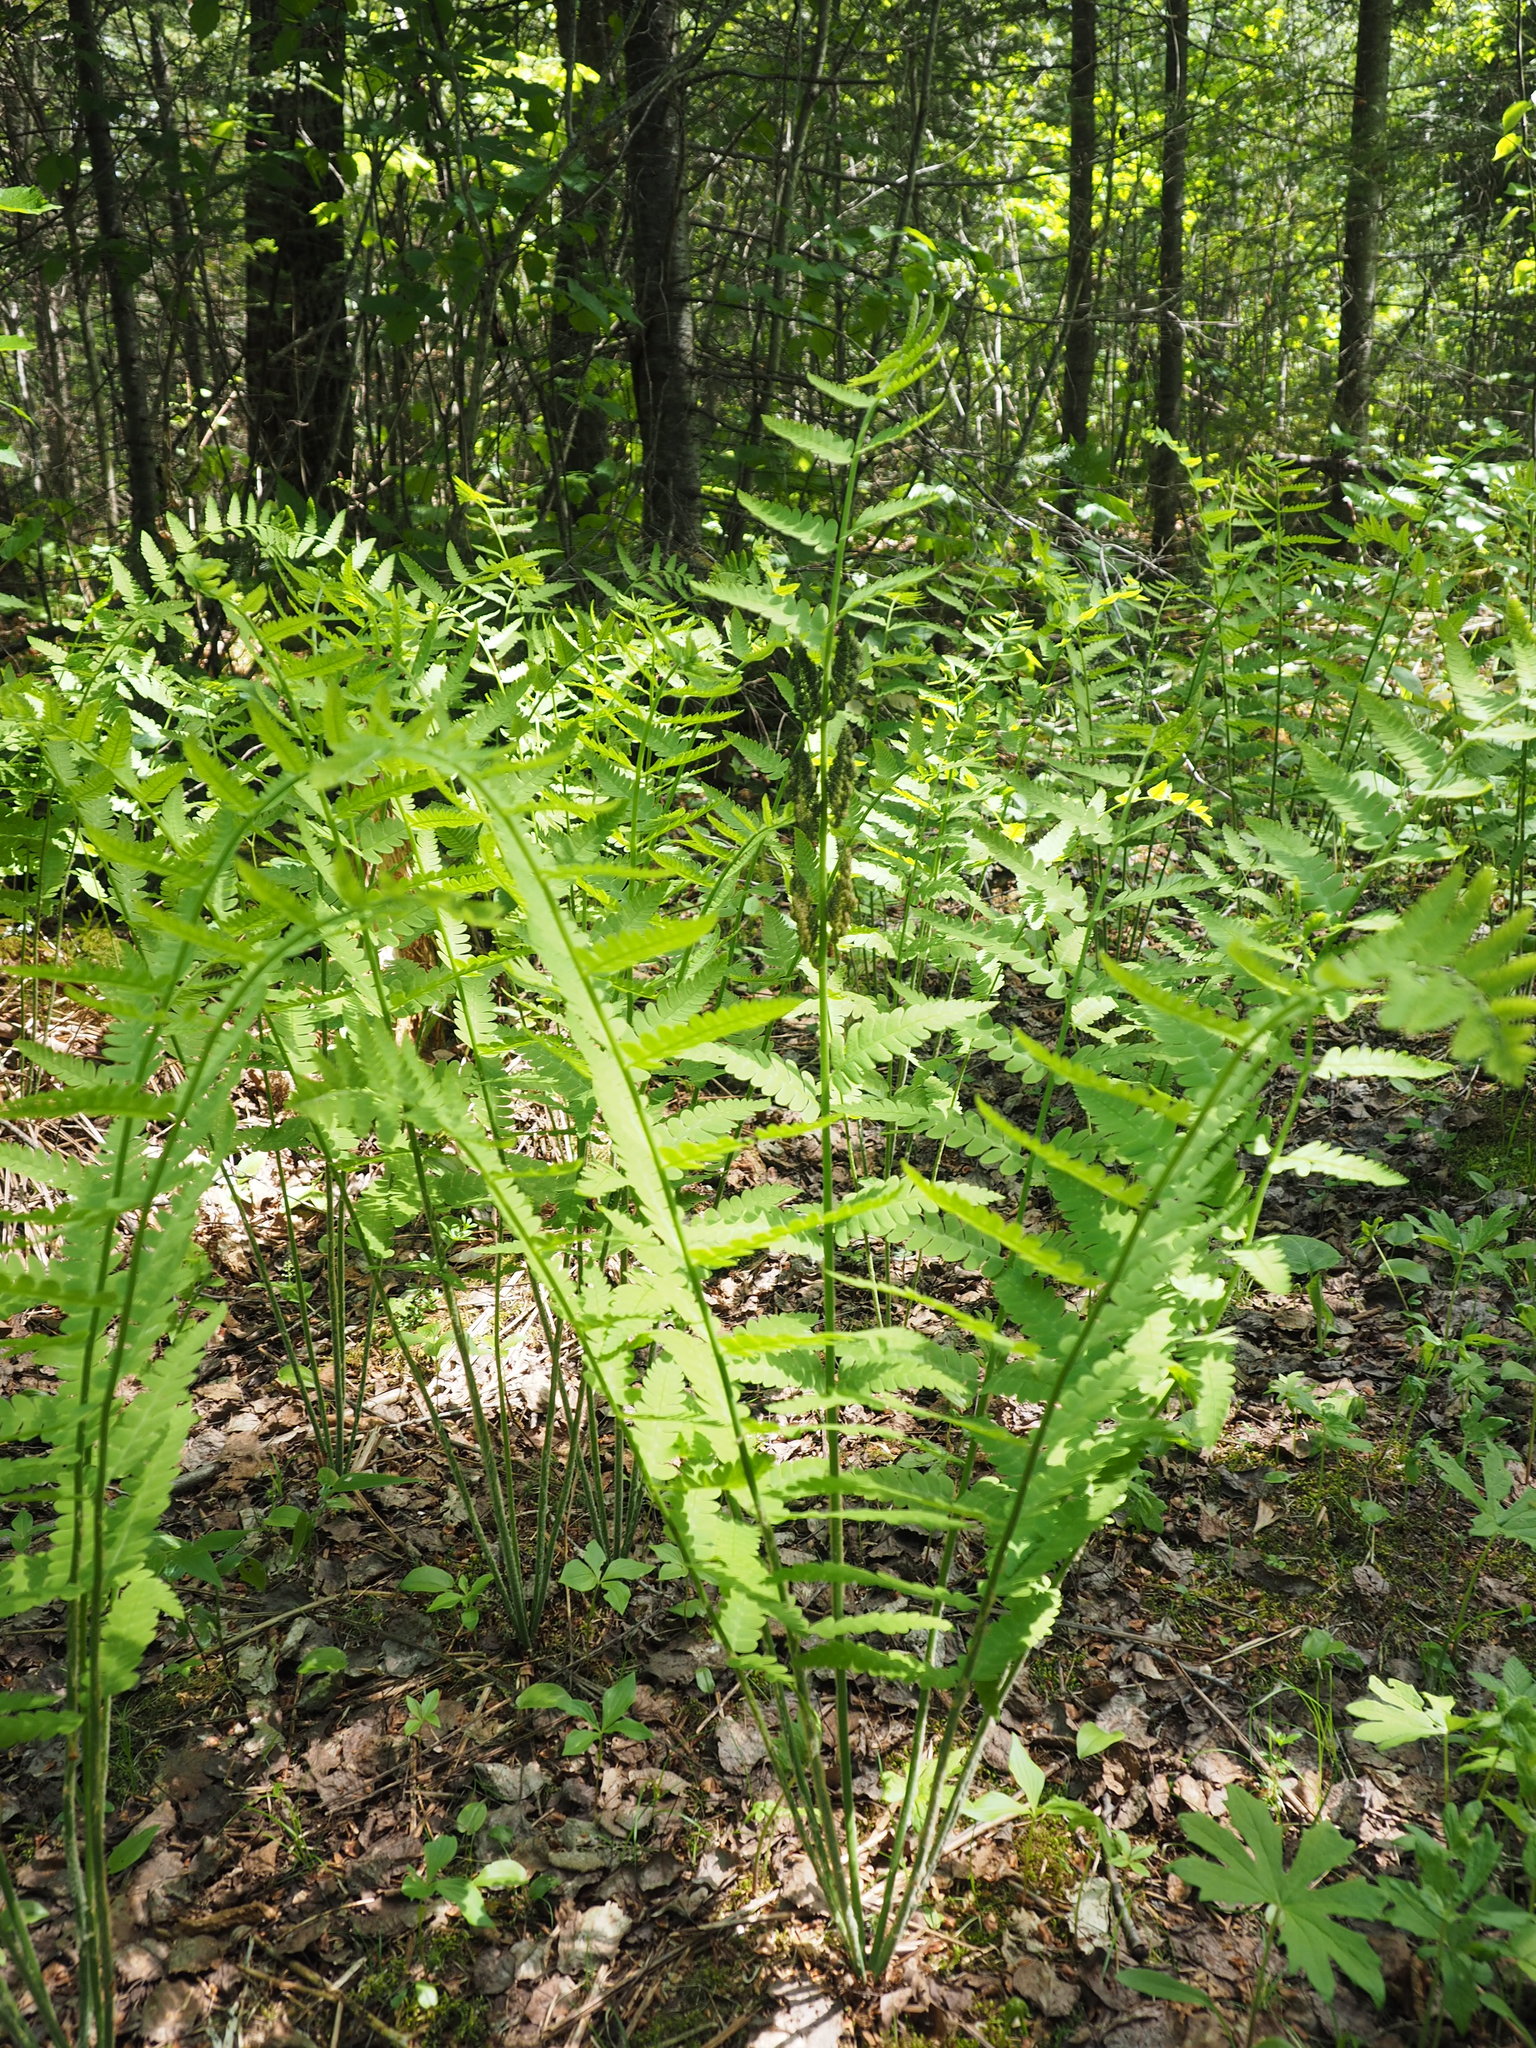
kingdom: Plantae
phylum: Tracheophyta
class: Polypodiopsida
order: Osmundales
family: Osmundaceae
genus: Claytosmunda
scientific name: Claytosmunda claytoniana
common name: Clayton's fern
